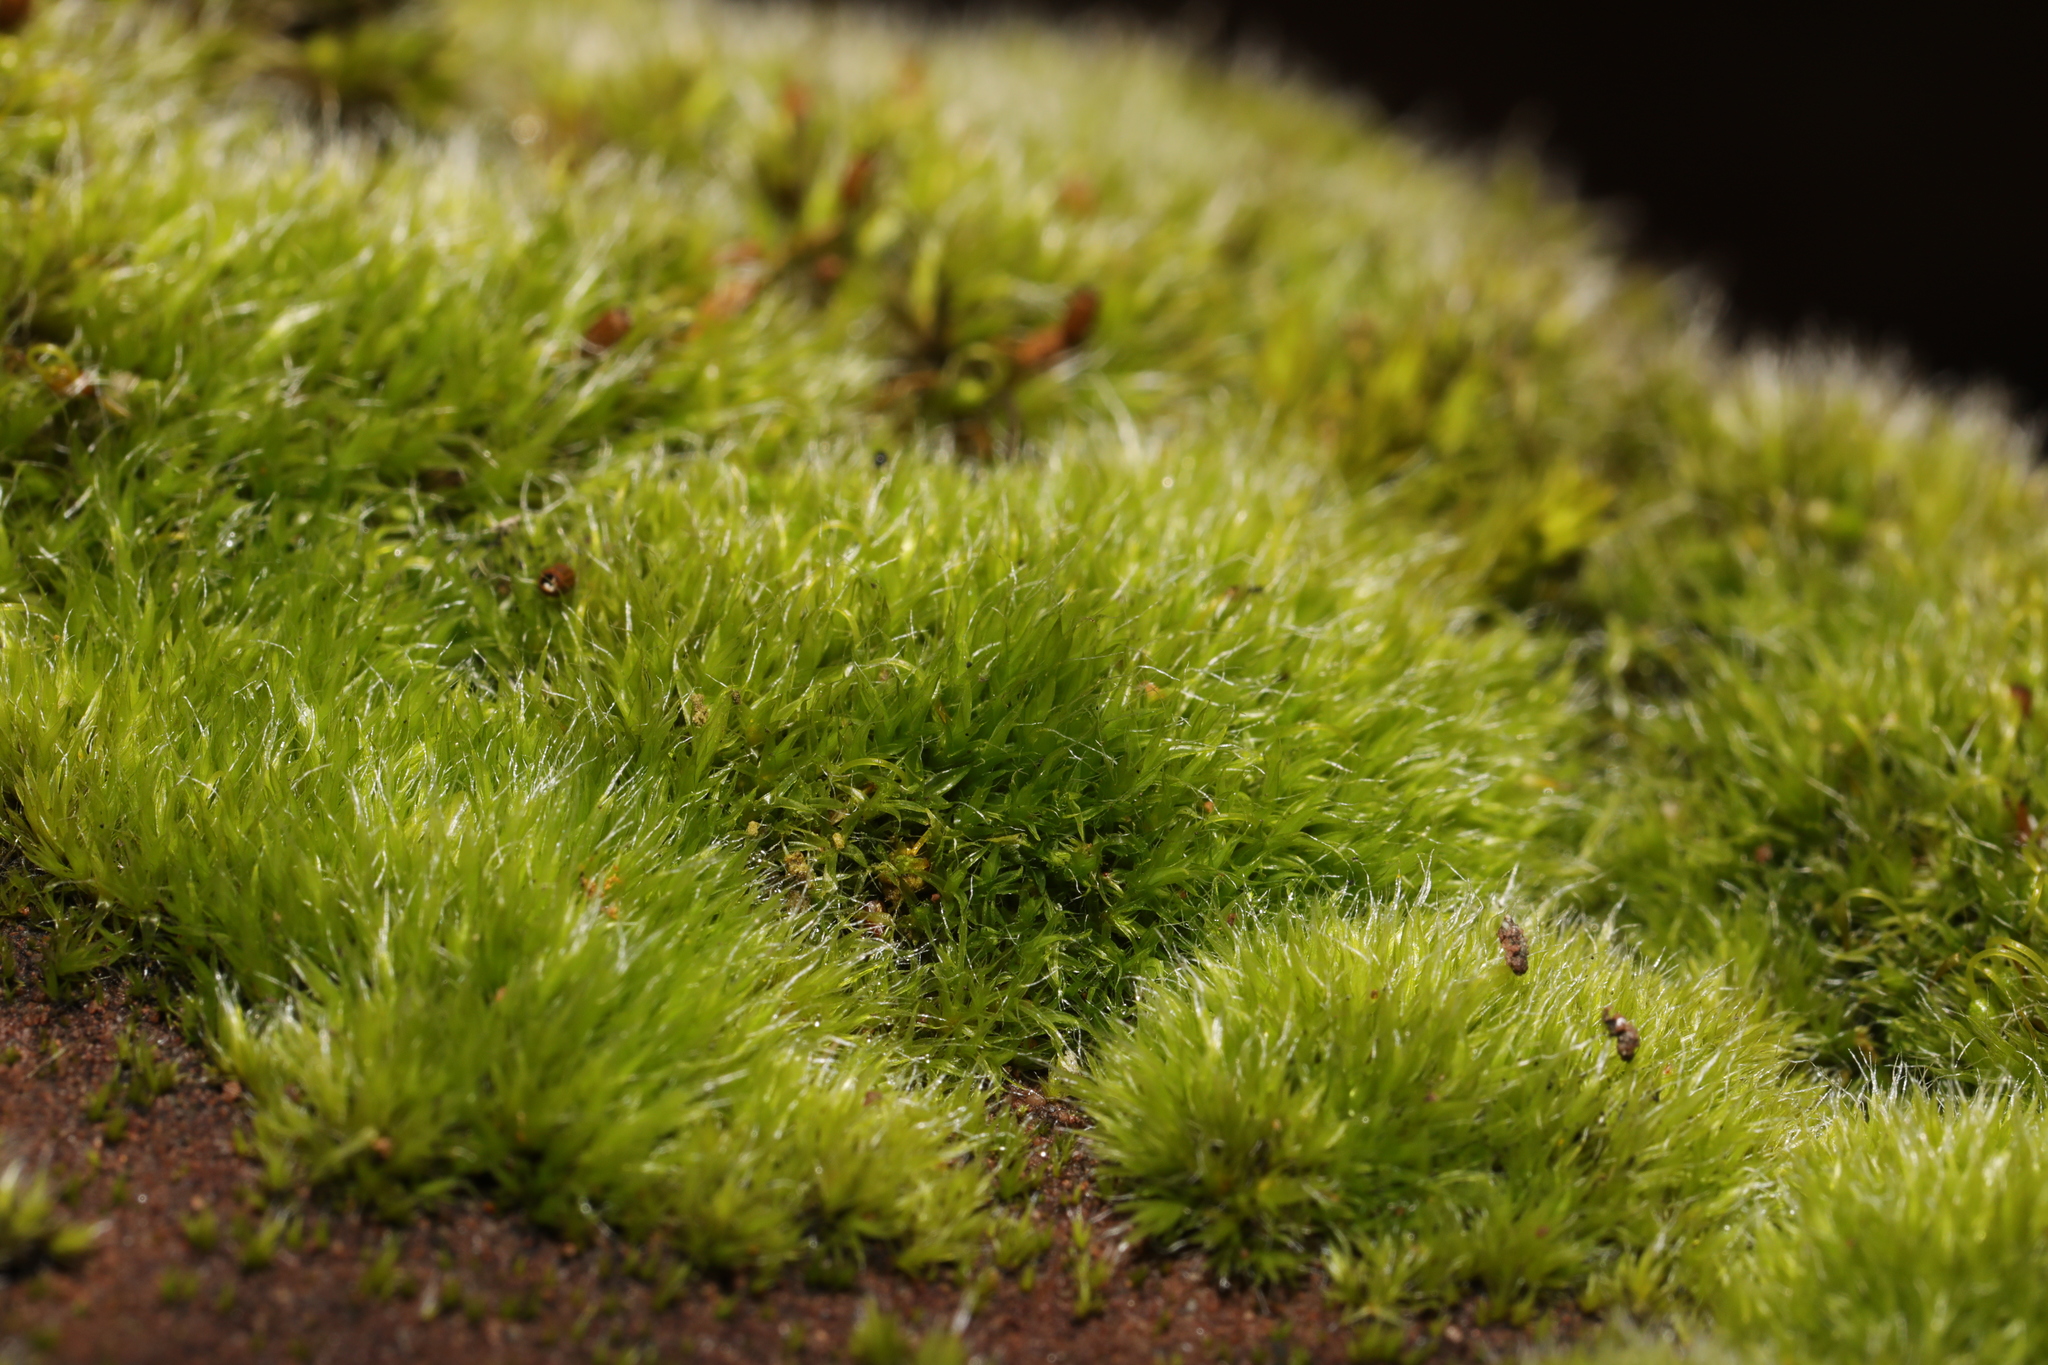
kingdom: Plantae
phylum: Bryophyta
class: Bryopsida
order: Grimmiales
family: Grimmiaceae
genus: Grimmia
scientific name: Grimmia pulvinata
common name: Grey-cushioned grimmia
